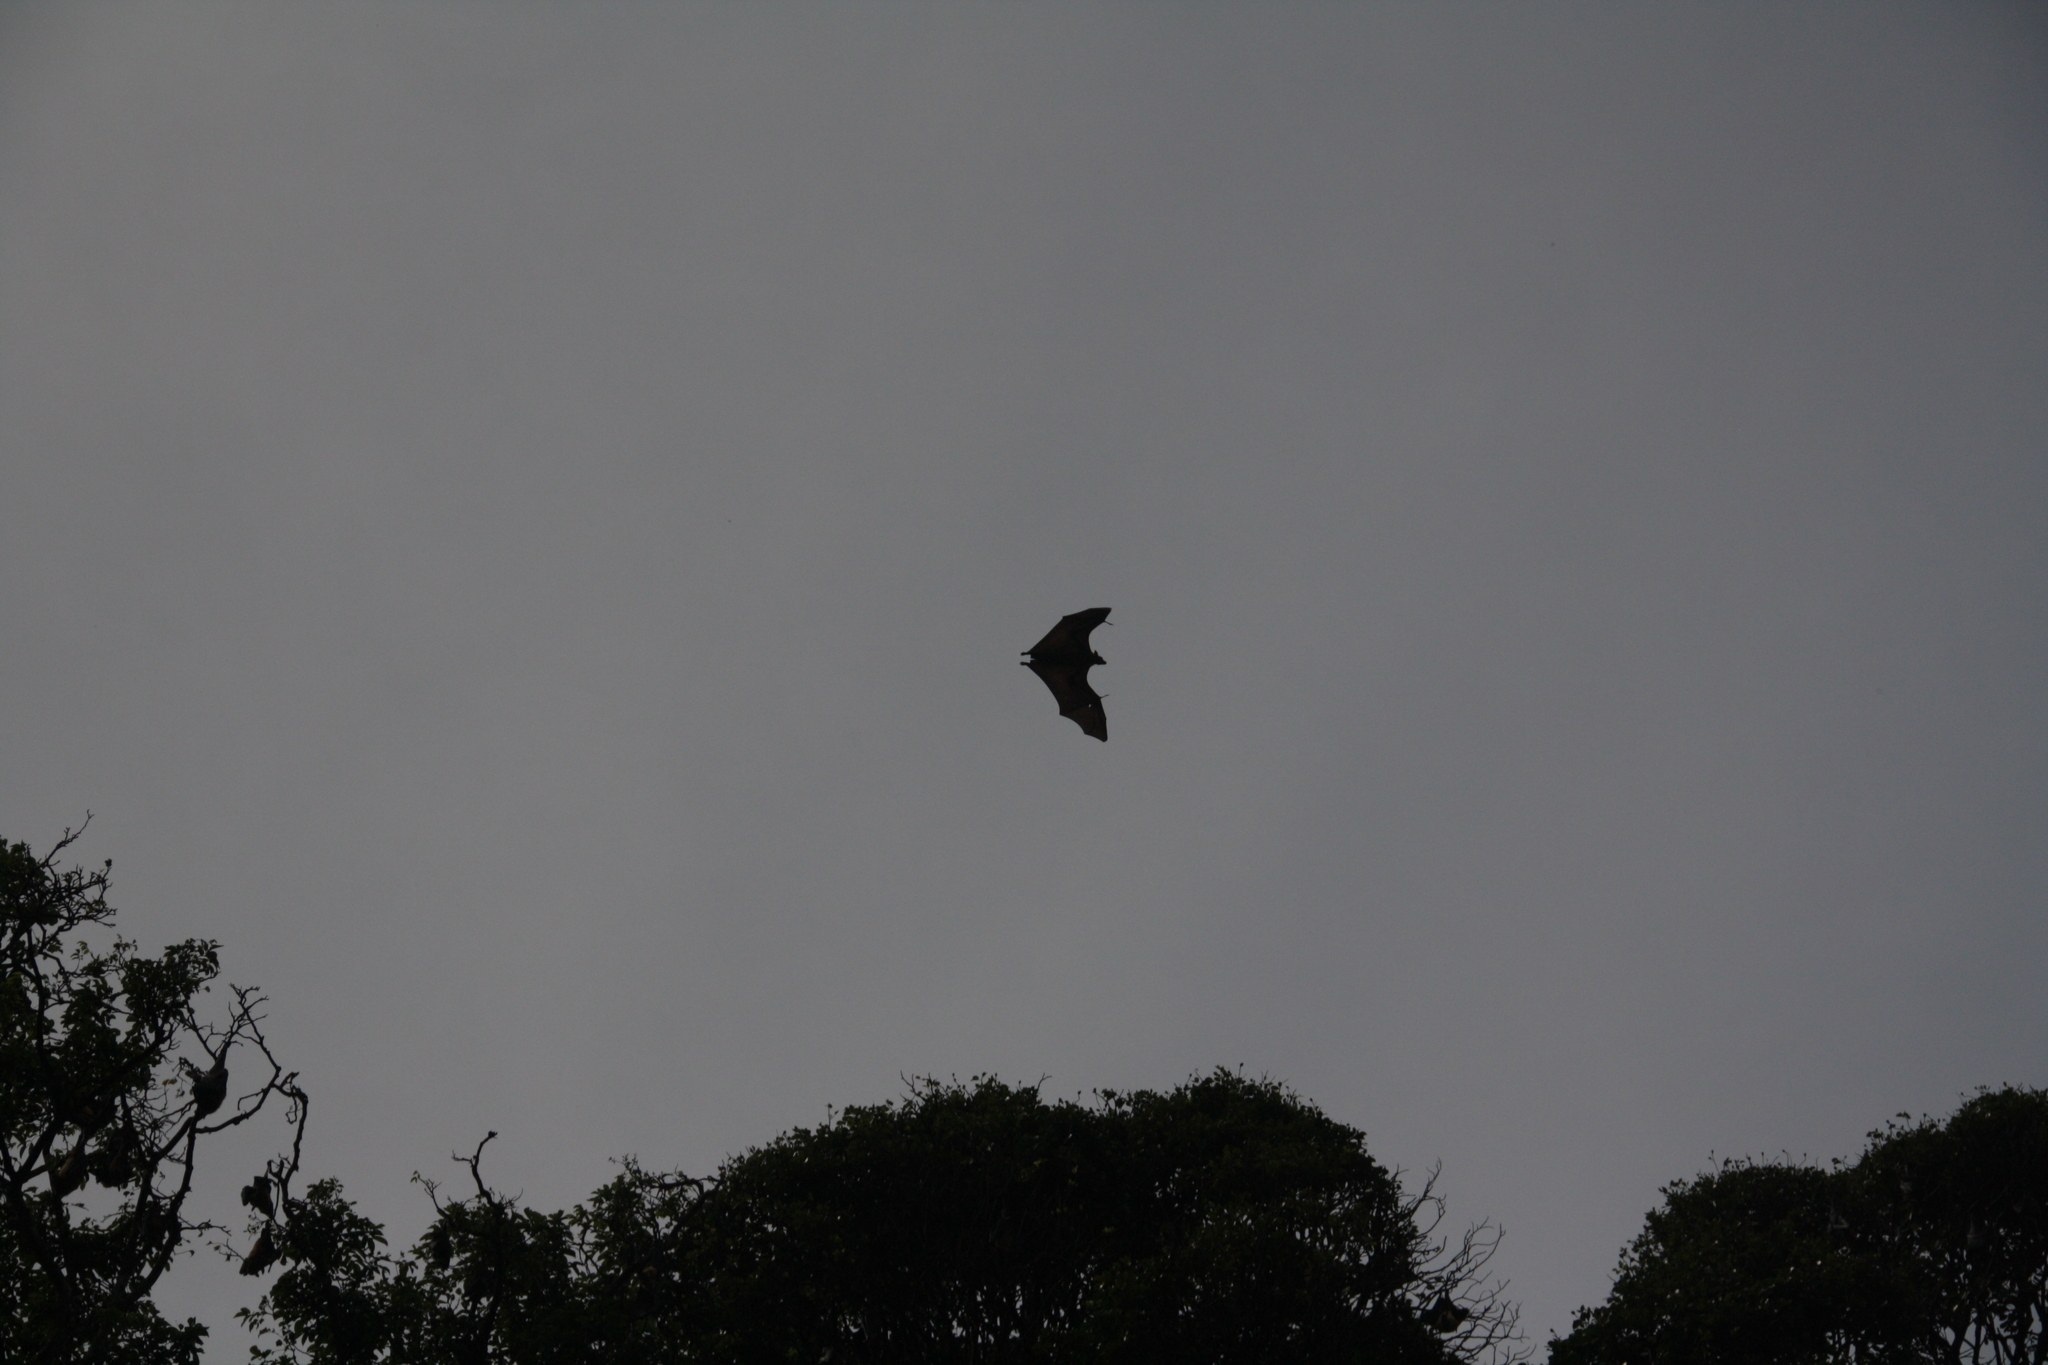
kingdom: Animalia
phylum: Chordata
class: Mammalia
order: Chiroptera
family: Pteropodidae
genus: Pteropus
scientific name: Pteropus vampyrus
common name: Large flying fox
